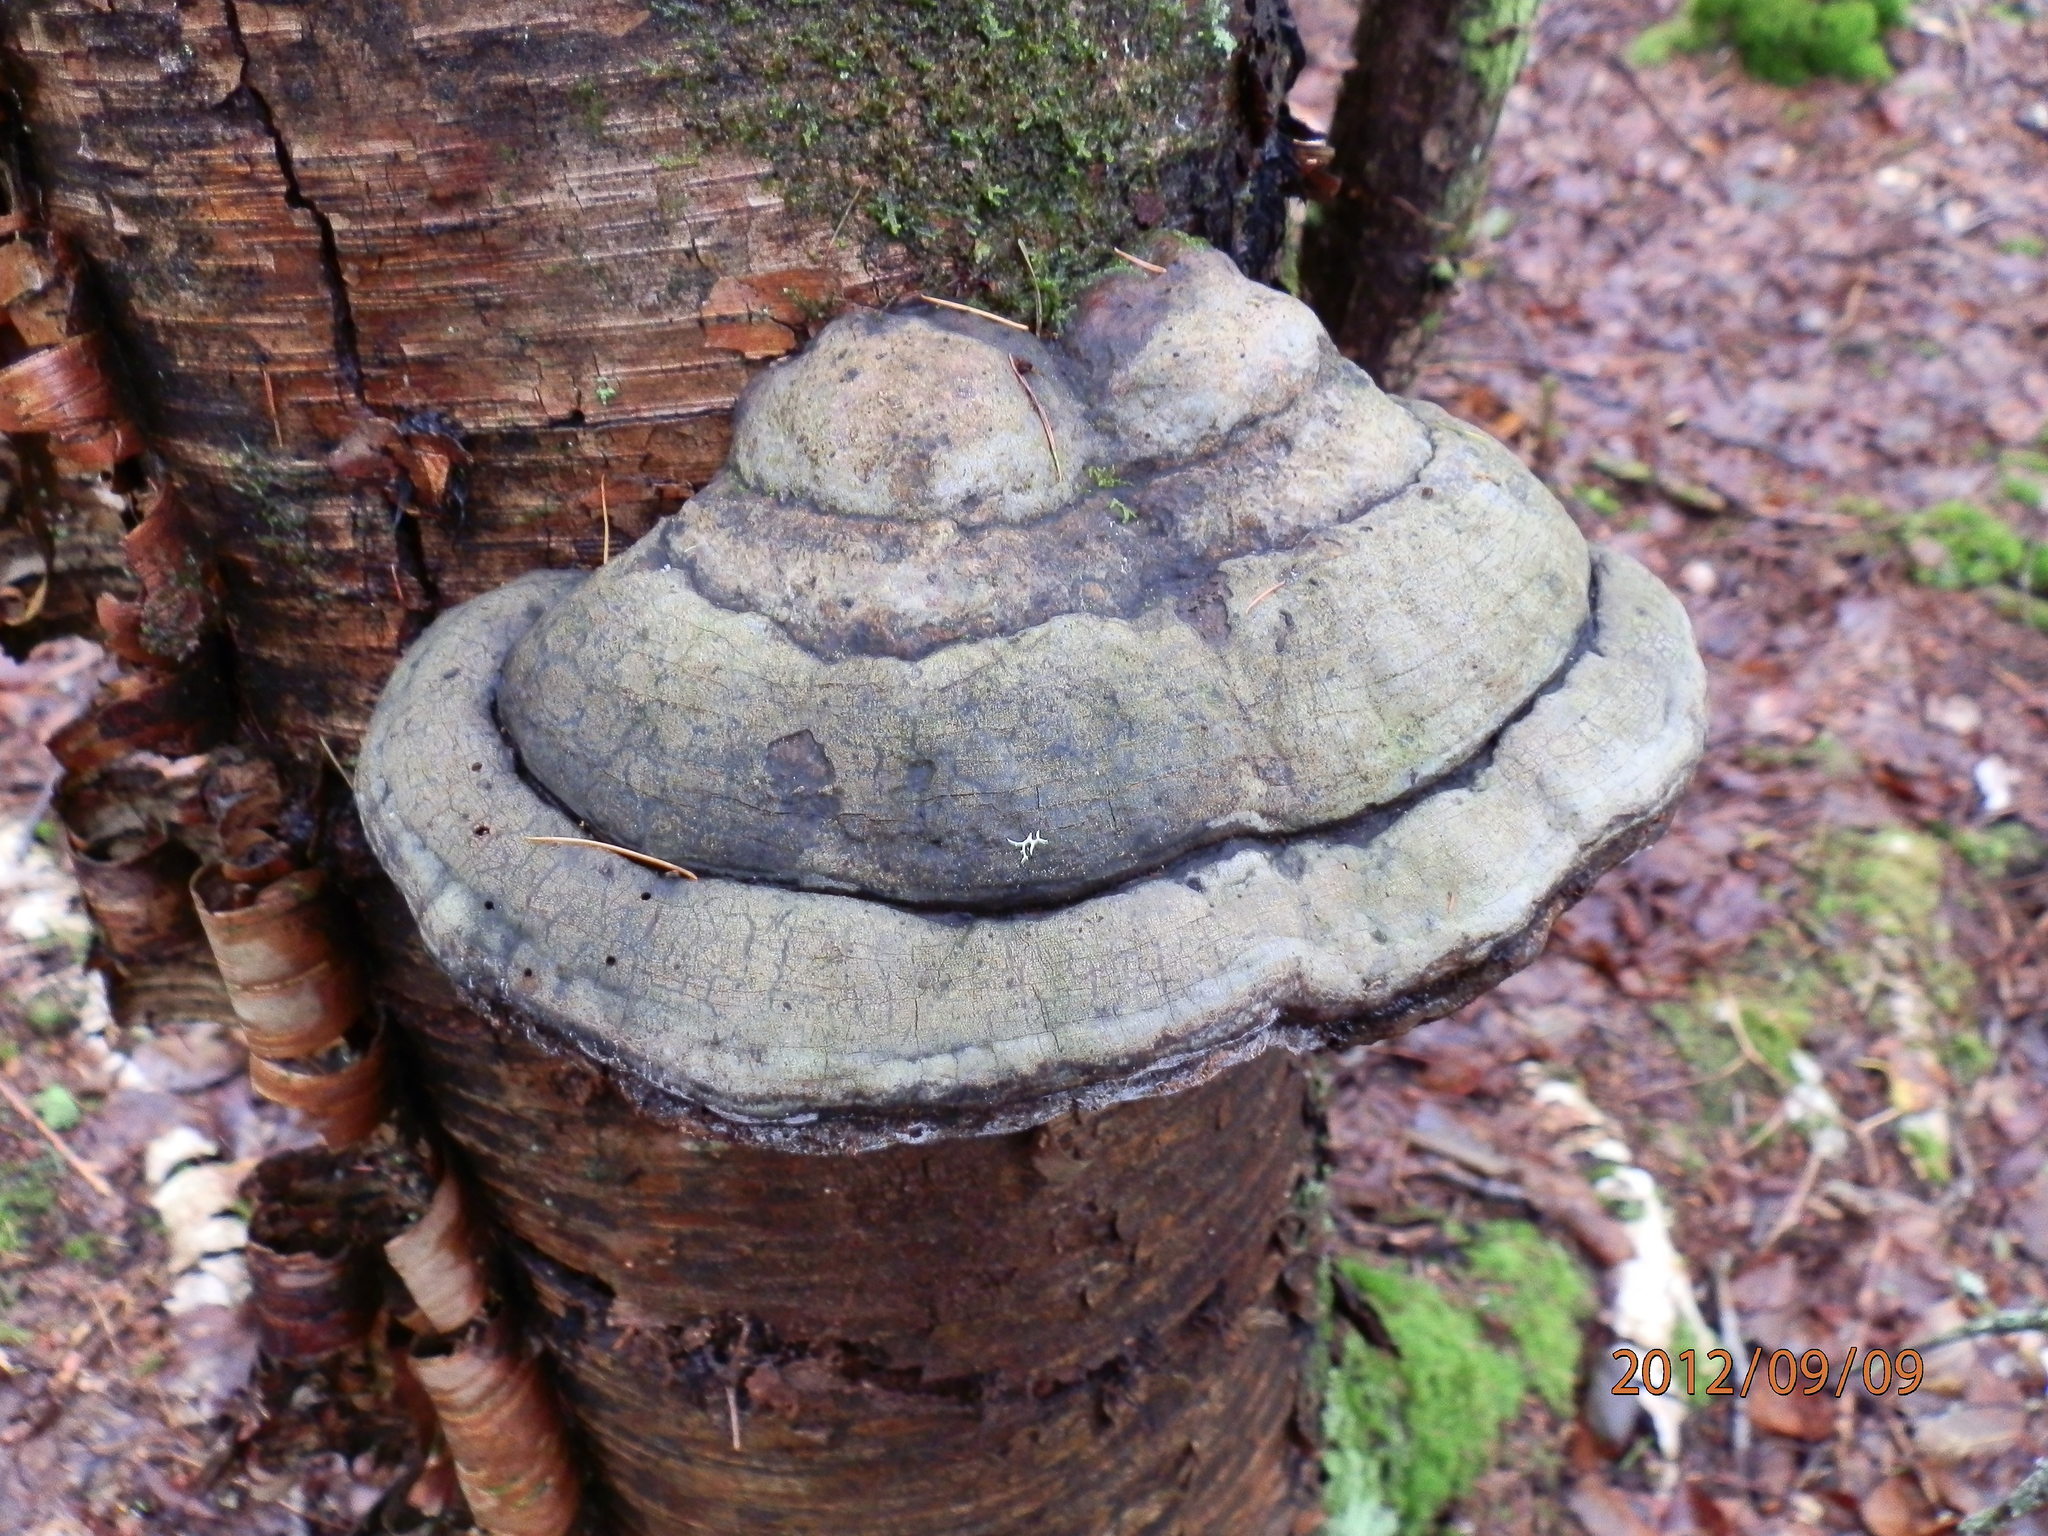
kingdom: Fungi
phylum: Basidiomycota
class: Agaricomycetes
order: Polyporales
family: Fomitopsidaceae
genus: Fomitopsis
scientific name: Fomitopsis ochracea
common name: American brown fomitopsis
